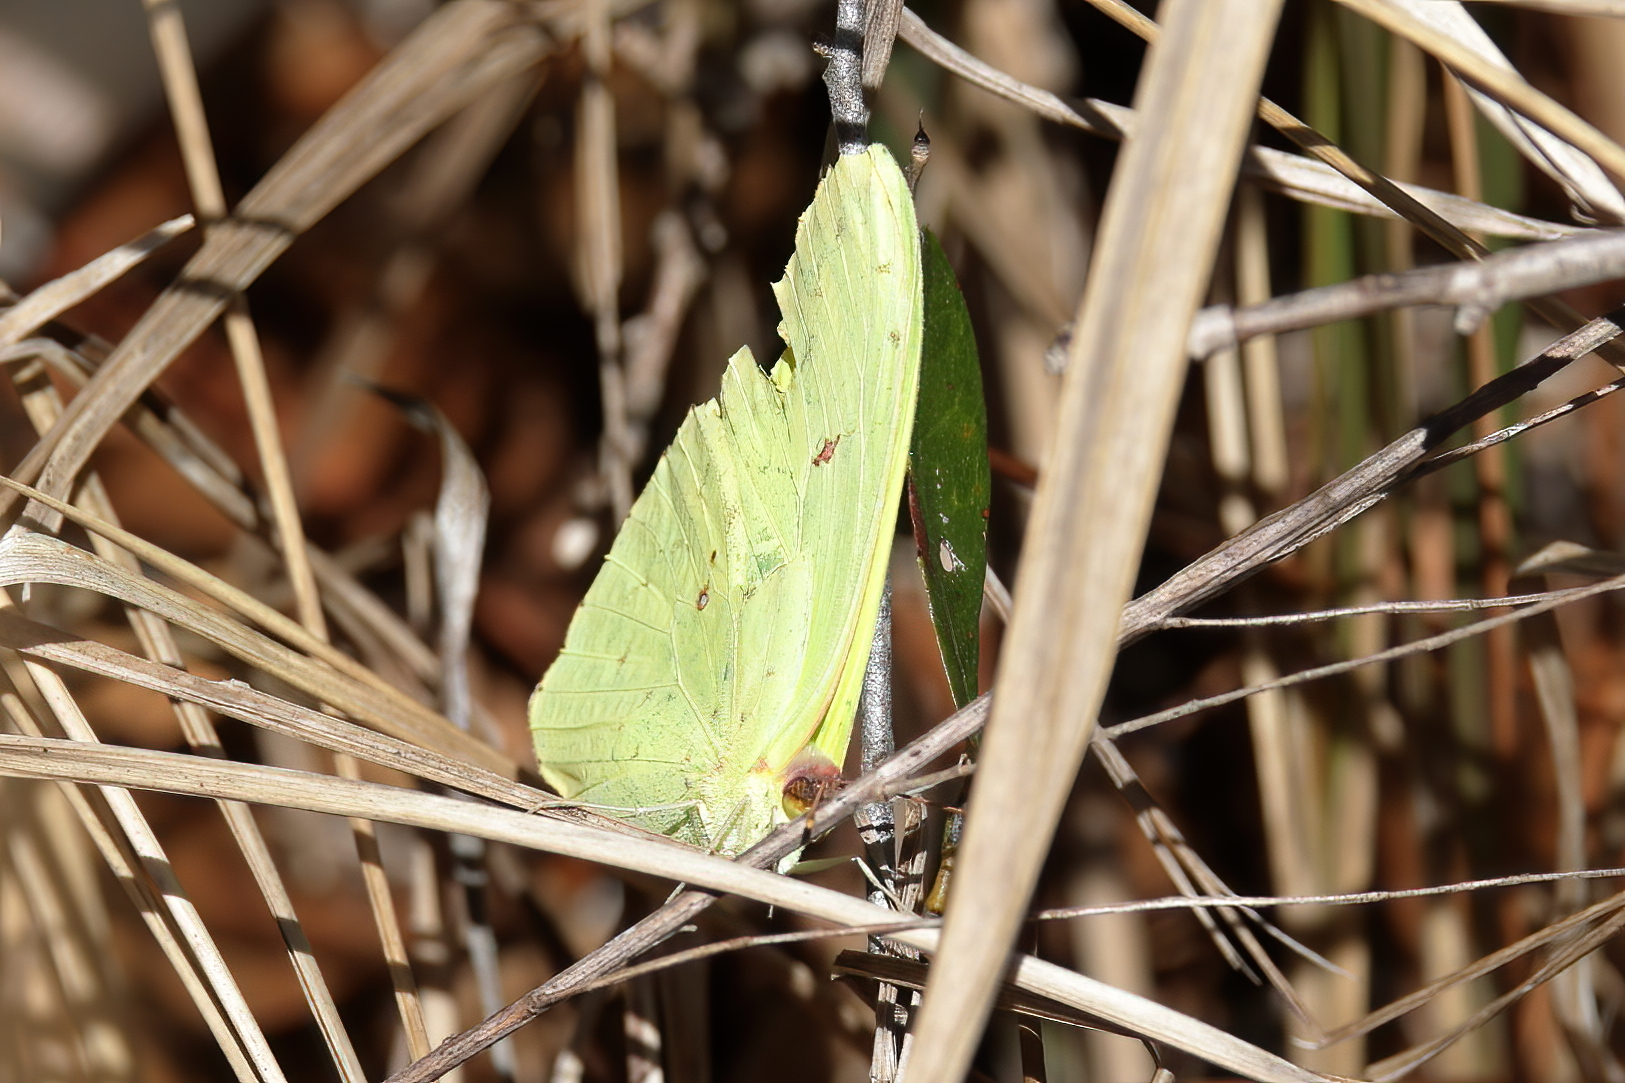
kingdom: Animalia
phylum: Arthropoda
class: Insecta
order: Lepidoptera
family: Pieridae
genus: Phoebis
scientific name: Phoebis sennae
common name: Cloudless sulphur
